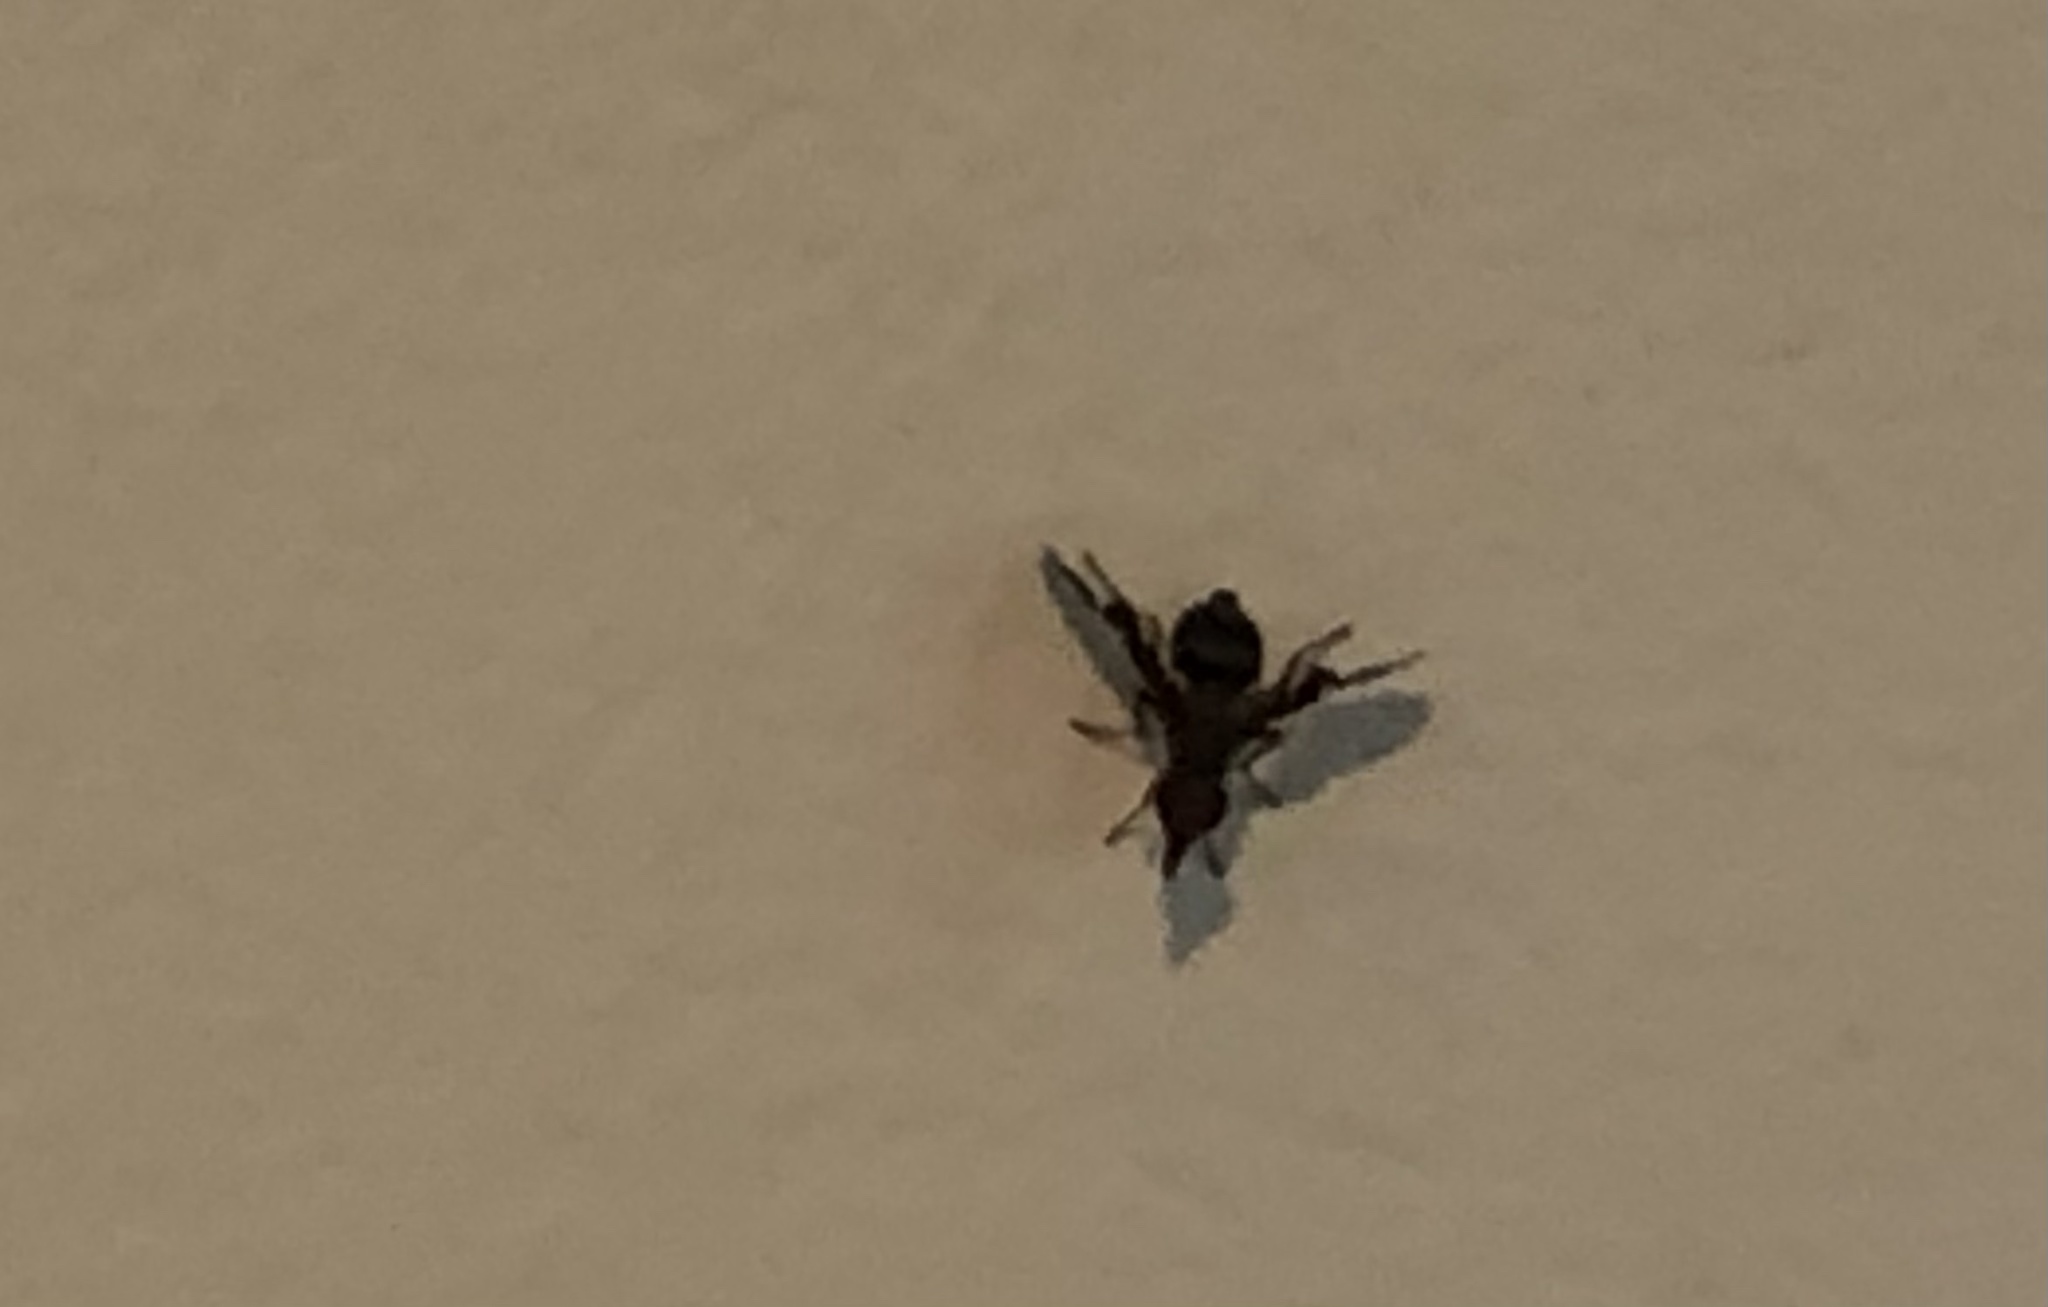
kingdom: Animalia
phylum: Arthropoda
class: Insecta
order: Diptera
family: Ulidiidae
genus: Delphinia
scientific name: Delphinia picta
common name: Common picture-winged fly
